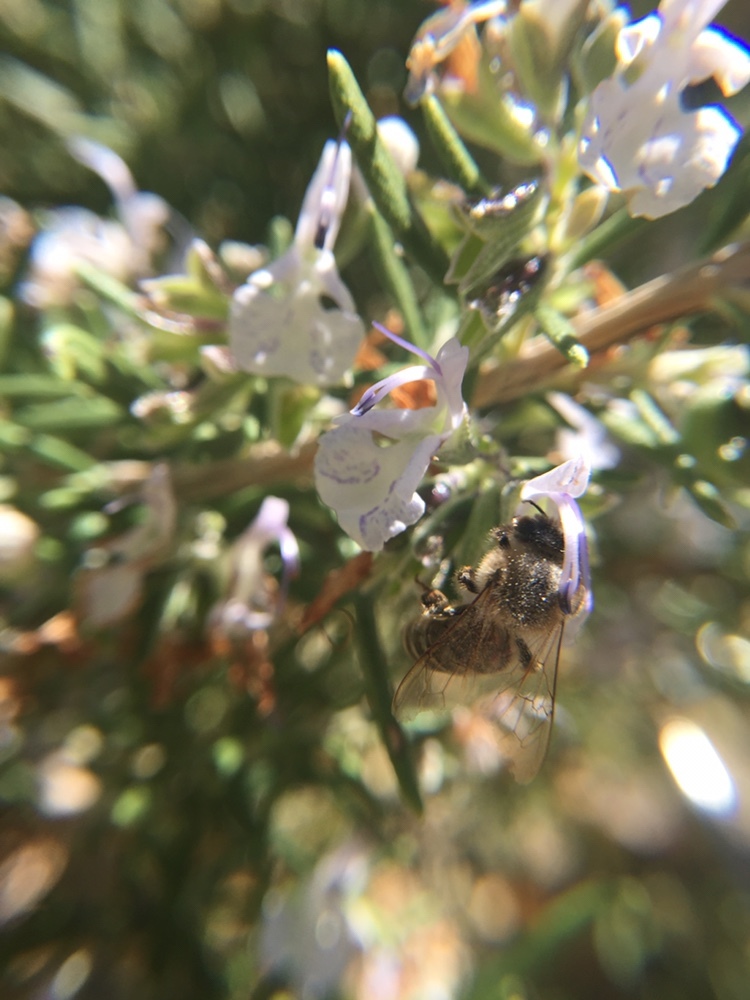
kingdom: Animalia
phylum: Arthropoda
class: Insecta
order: Hymenoptera
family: Apidae
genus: Apis
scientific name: Apis mellifera
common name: Honey bee
